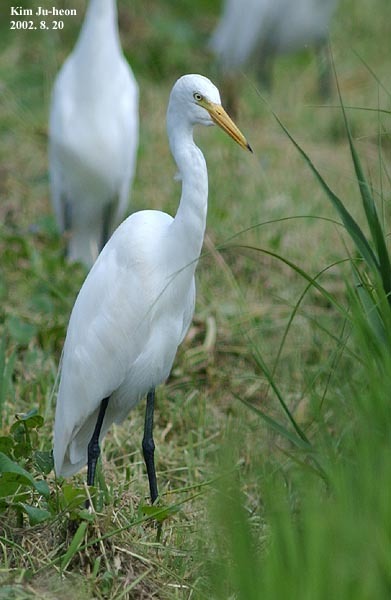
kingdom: Animalia
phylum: Chordata
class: Aves
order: Pelecaniformes
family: Ardeidae
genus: Egretta
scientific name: Egretta intermedia
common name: Intermediate egret
